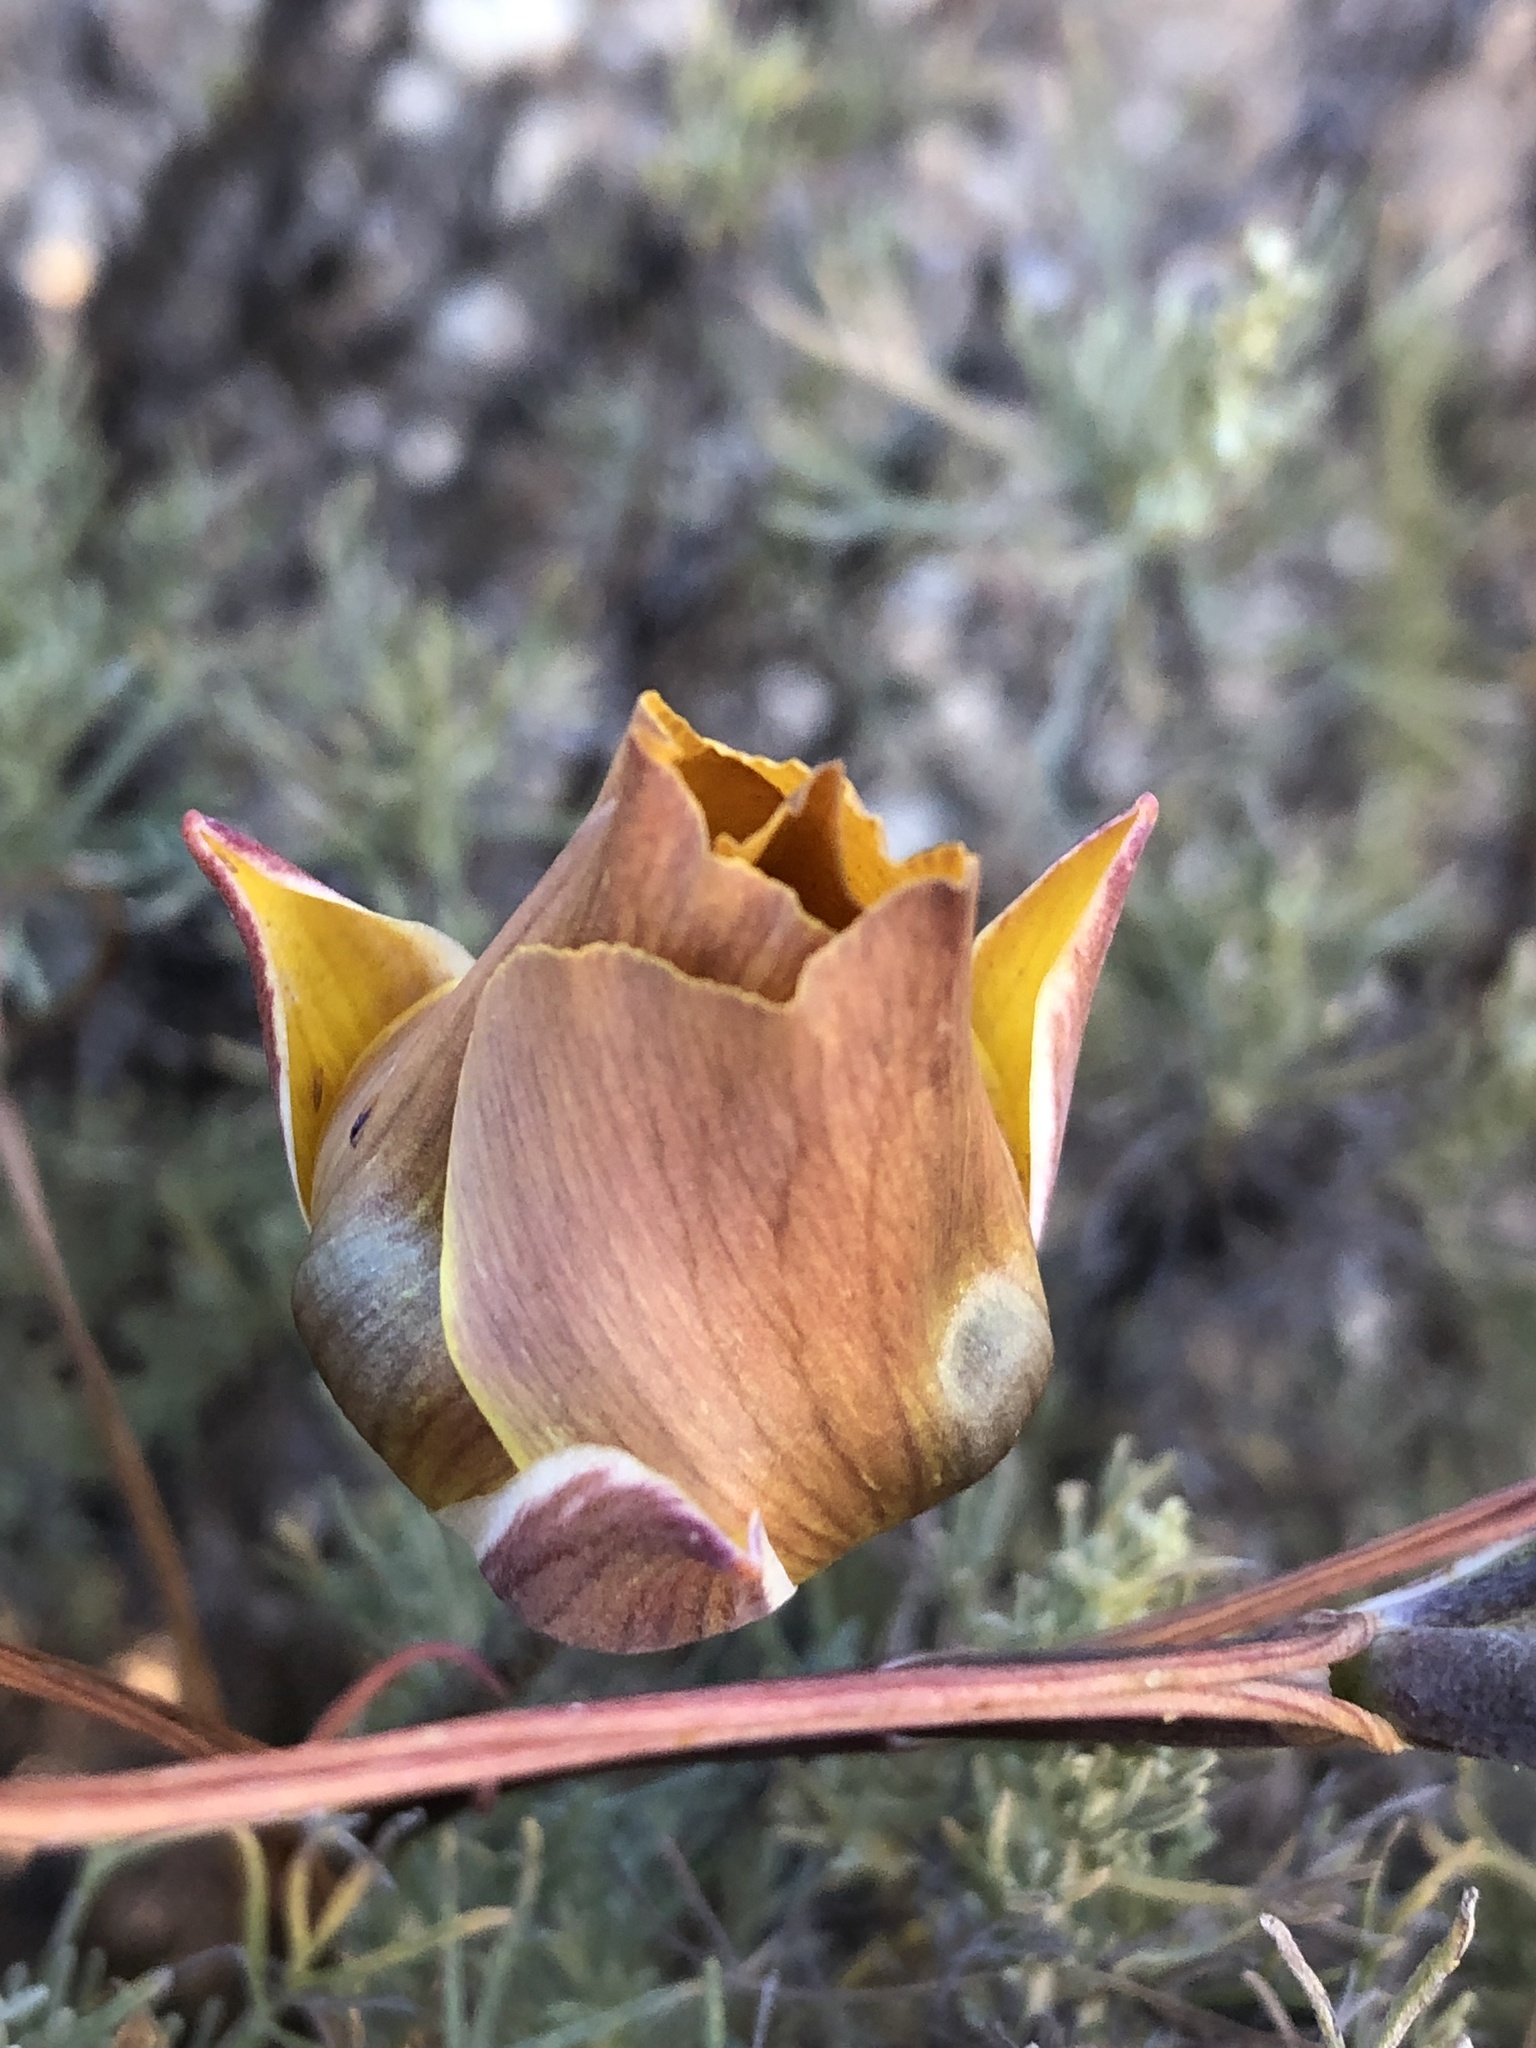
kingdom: Plantae
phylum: Tracheophyta
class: Liliopsida
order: Liliales
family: Liliaceae
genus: Calochortus
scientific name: Calochortus clavatus
